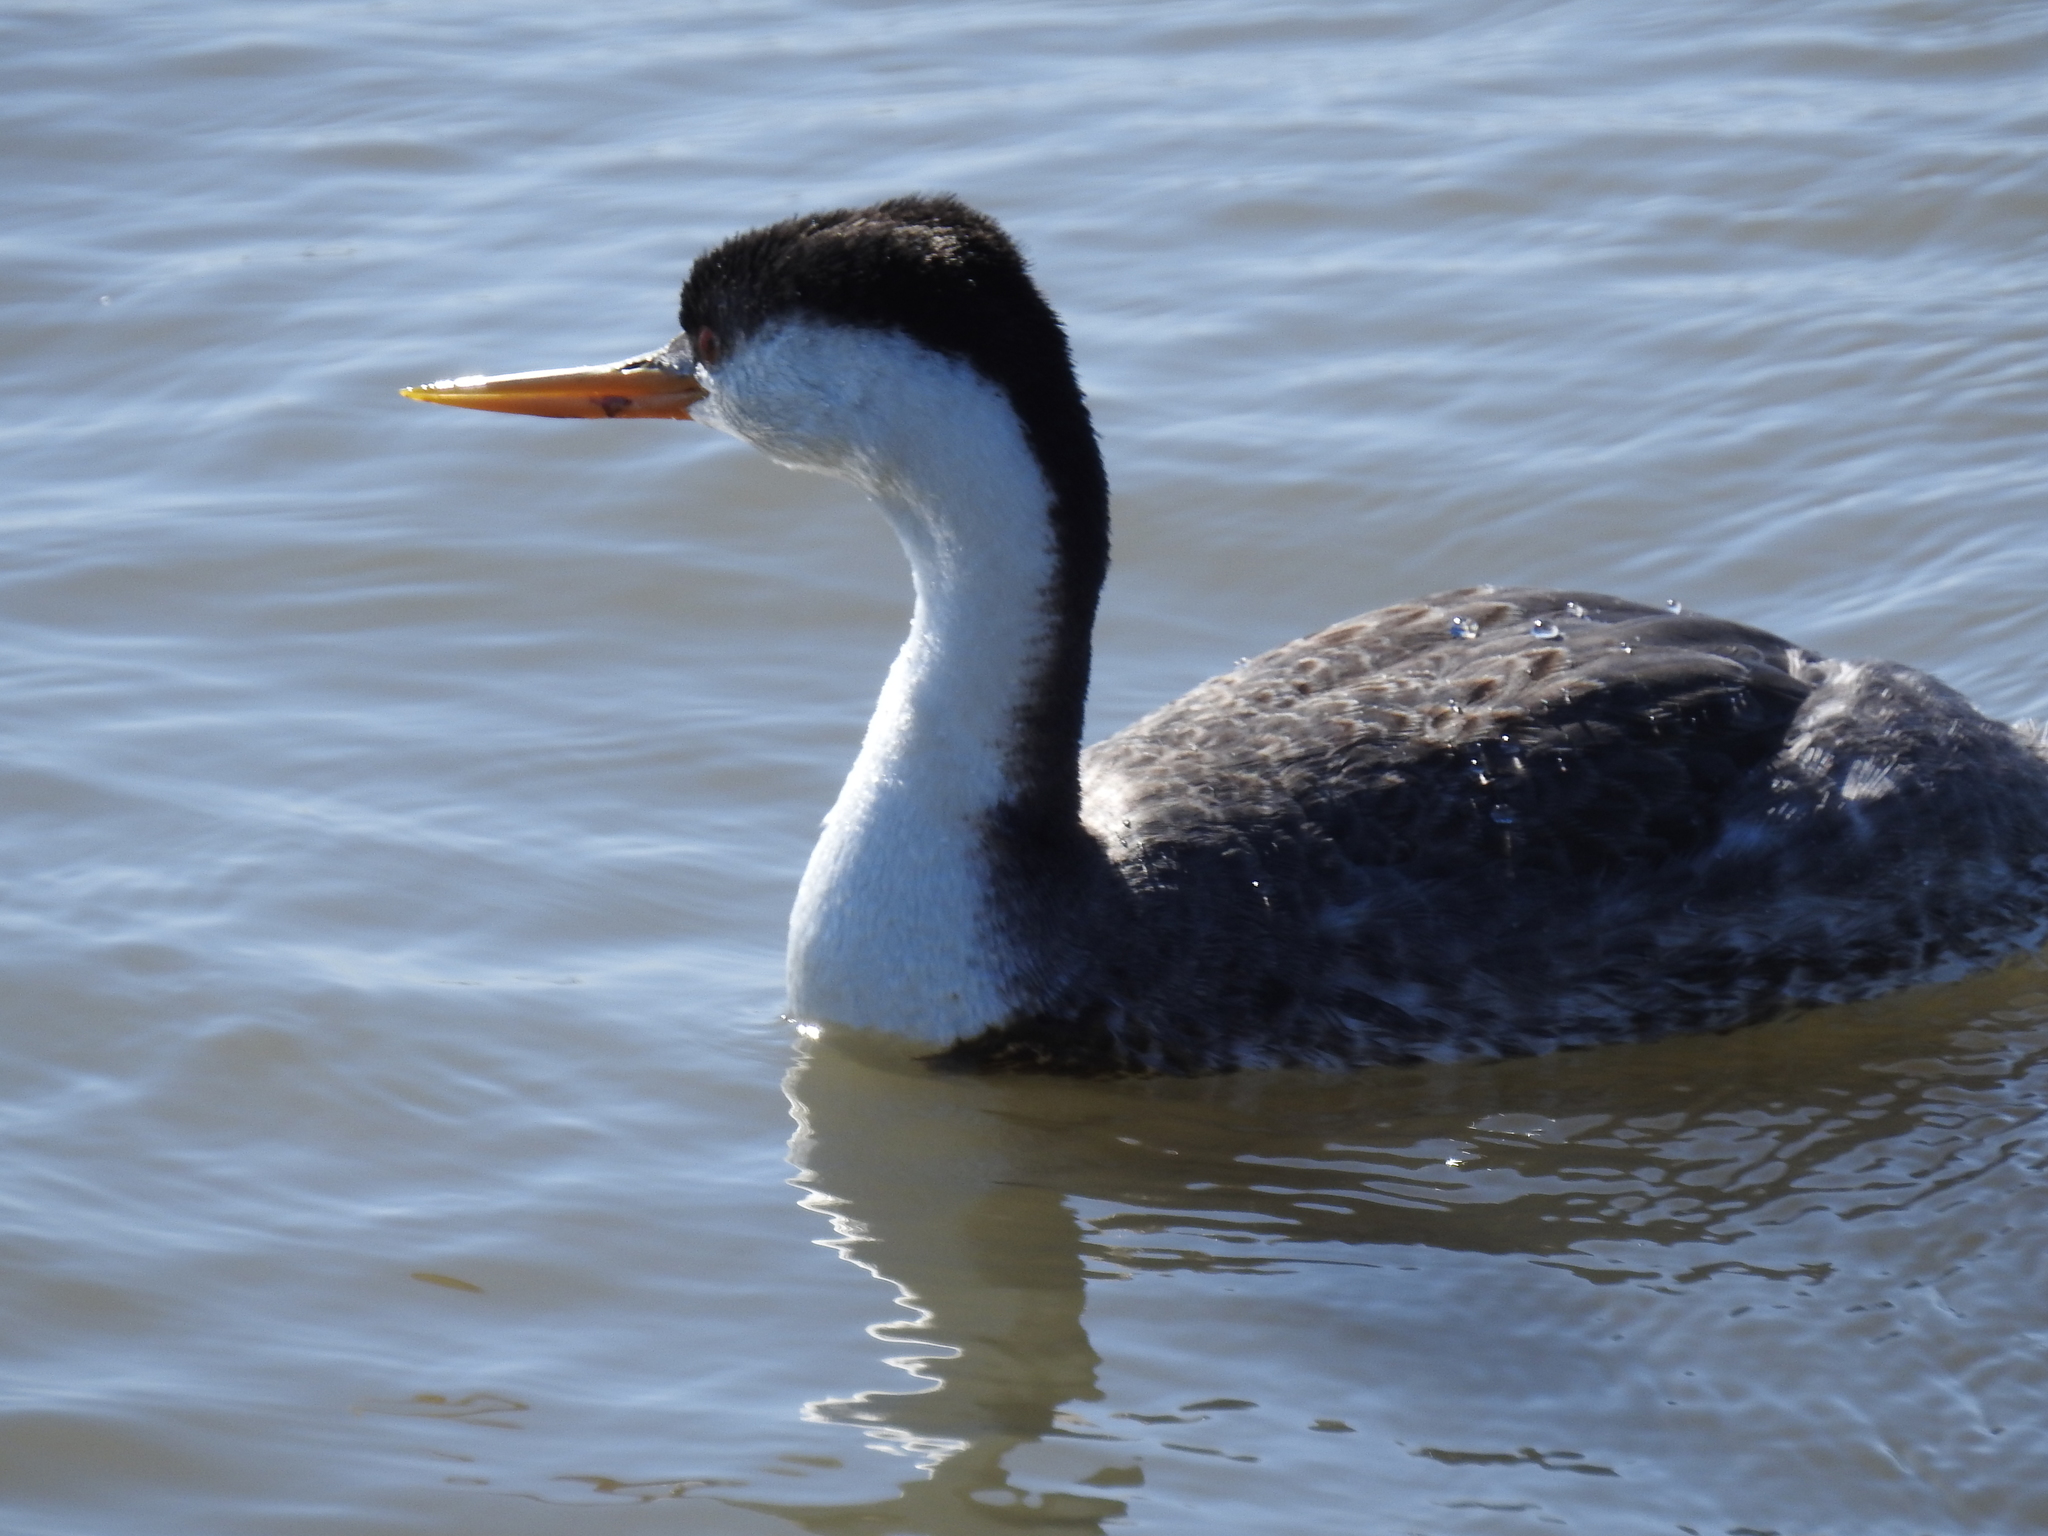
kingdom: Animalia
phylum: Chordata
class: Aves
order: Podicipediformes
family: Podicipedidae
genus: Aechmophorus
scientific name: Aechmophorus clarkii
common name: Clark's grebe
